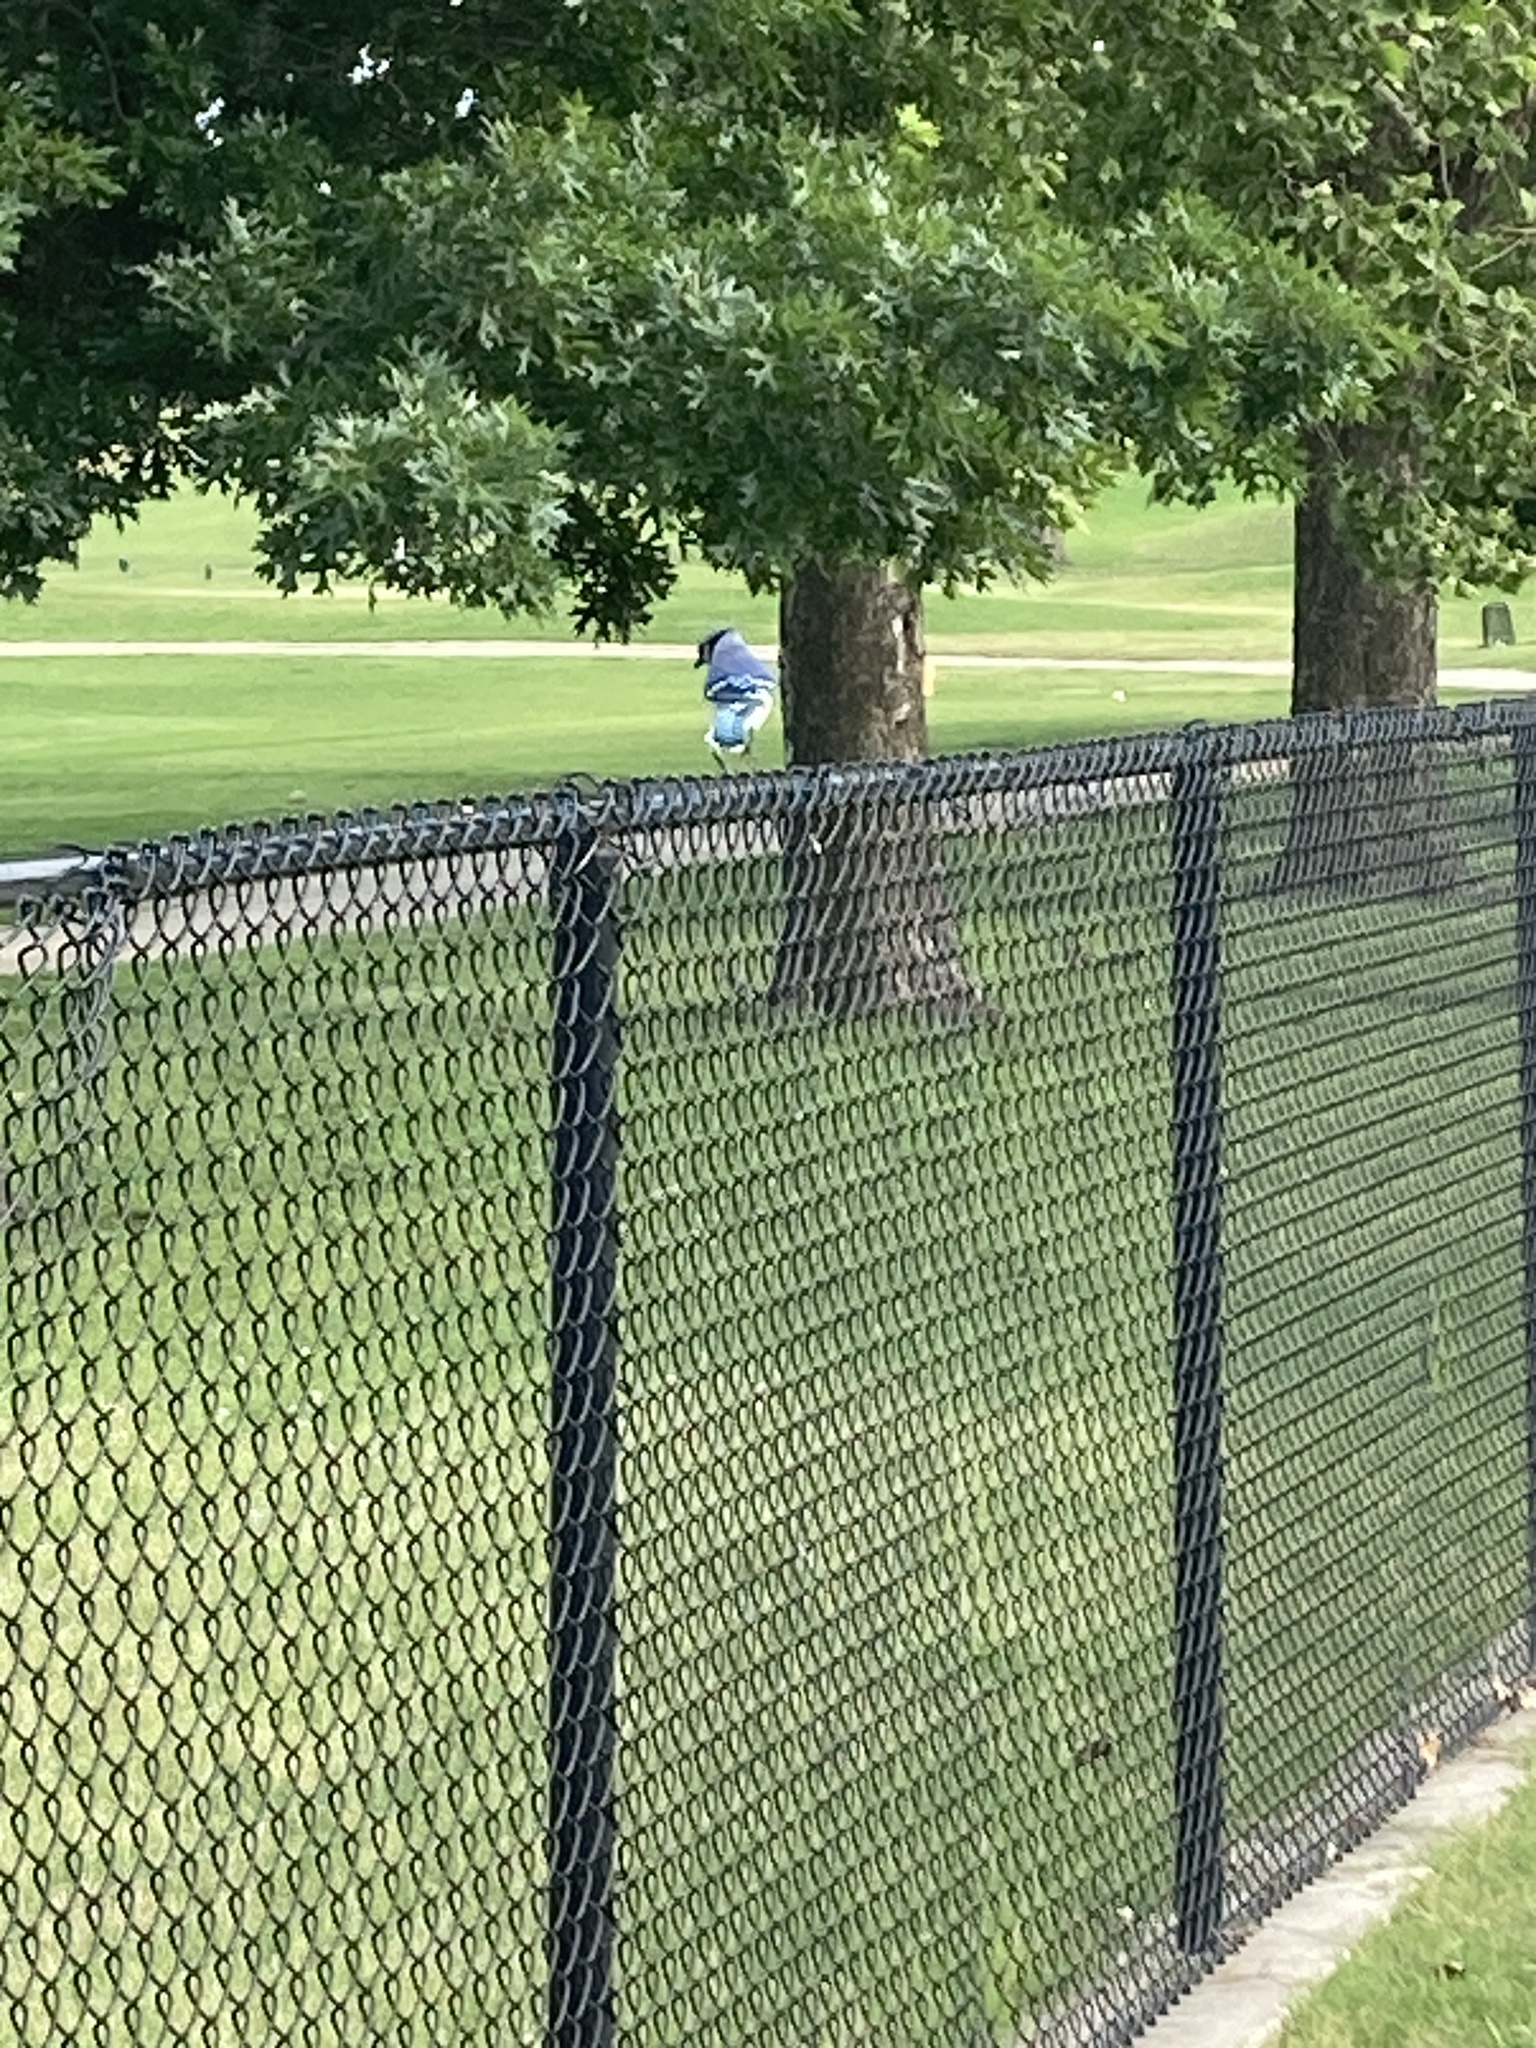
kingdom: Animalia
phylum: Chordata
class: Aves
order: Passeriformes
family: Corvidae
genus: Cyanocitta
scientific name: Cyanocitta cristata
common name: Blue jay
